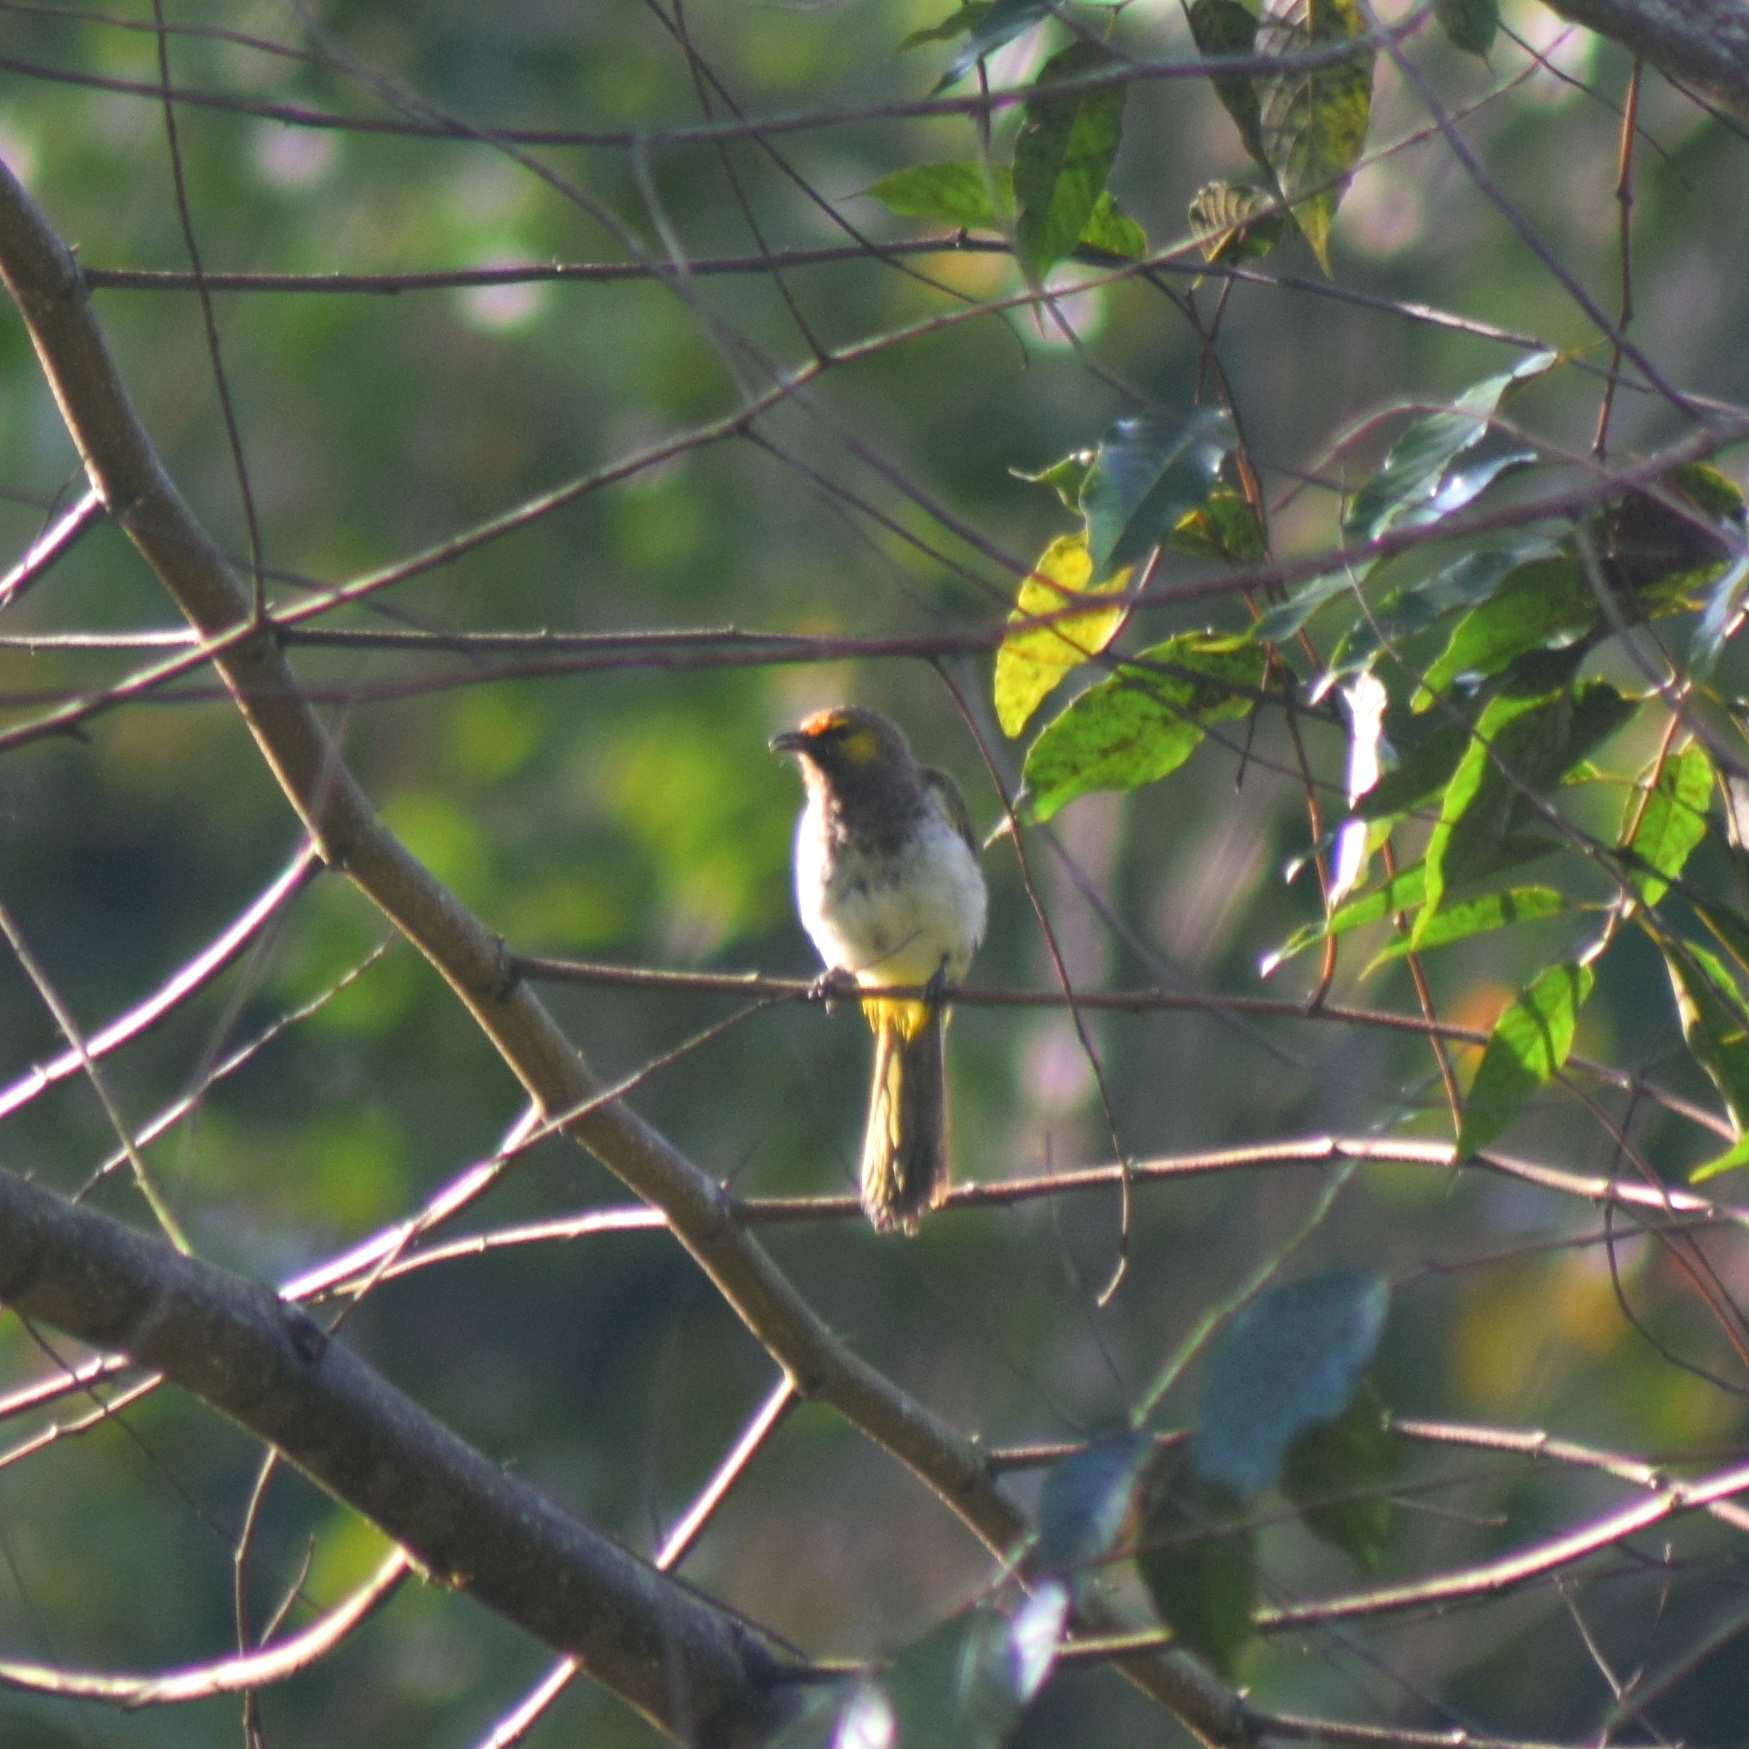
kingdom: Animalia
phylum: Chordata
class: Aves
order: Passeriformes
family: Pycnonotidae
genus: Pycnonotus
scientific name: Pycnonotus bimaculatus
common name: Orange-spotted bulbul
